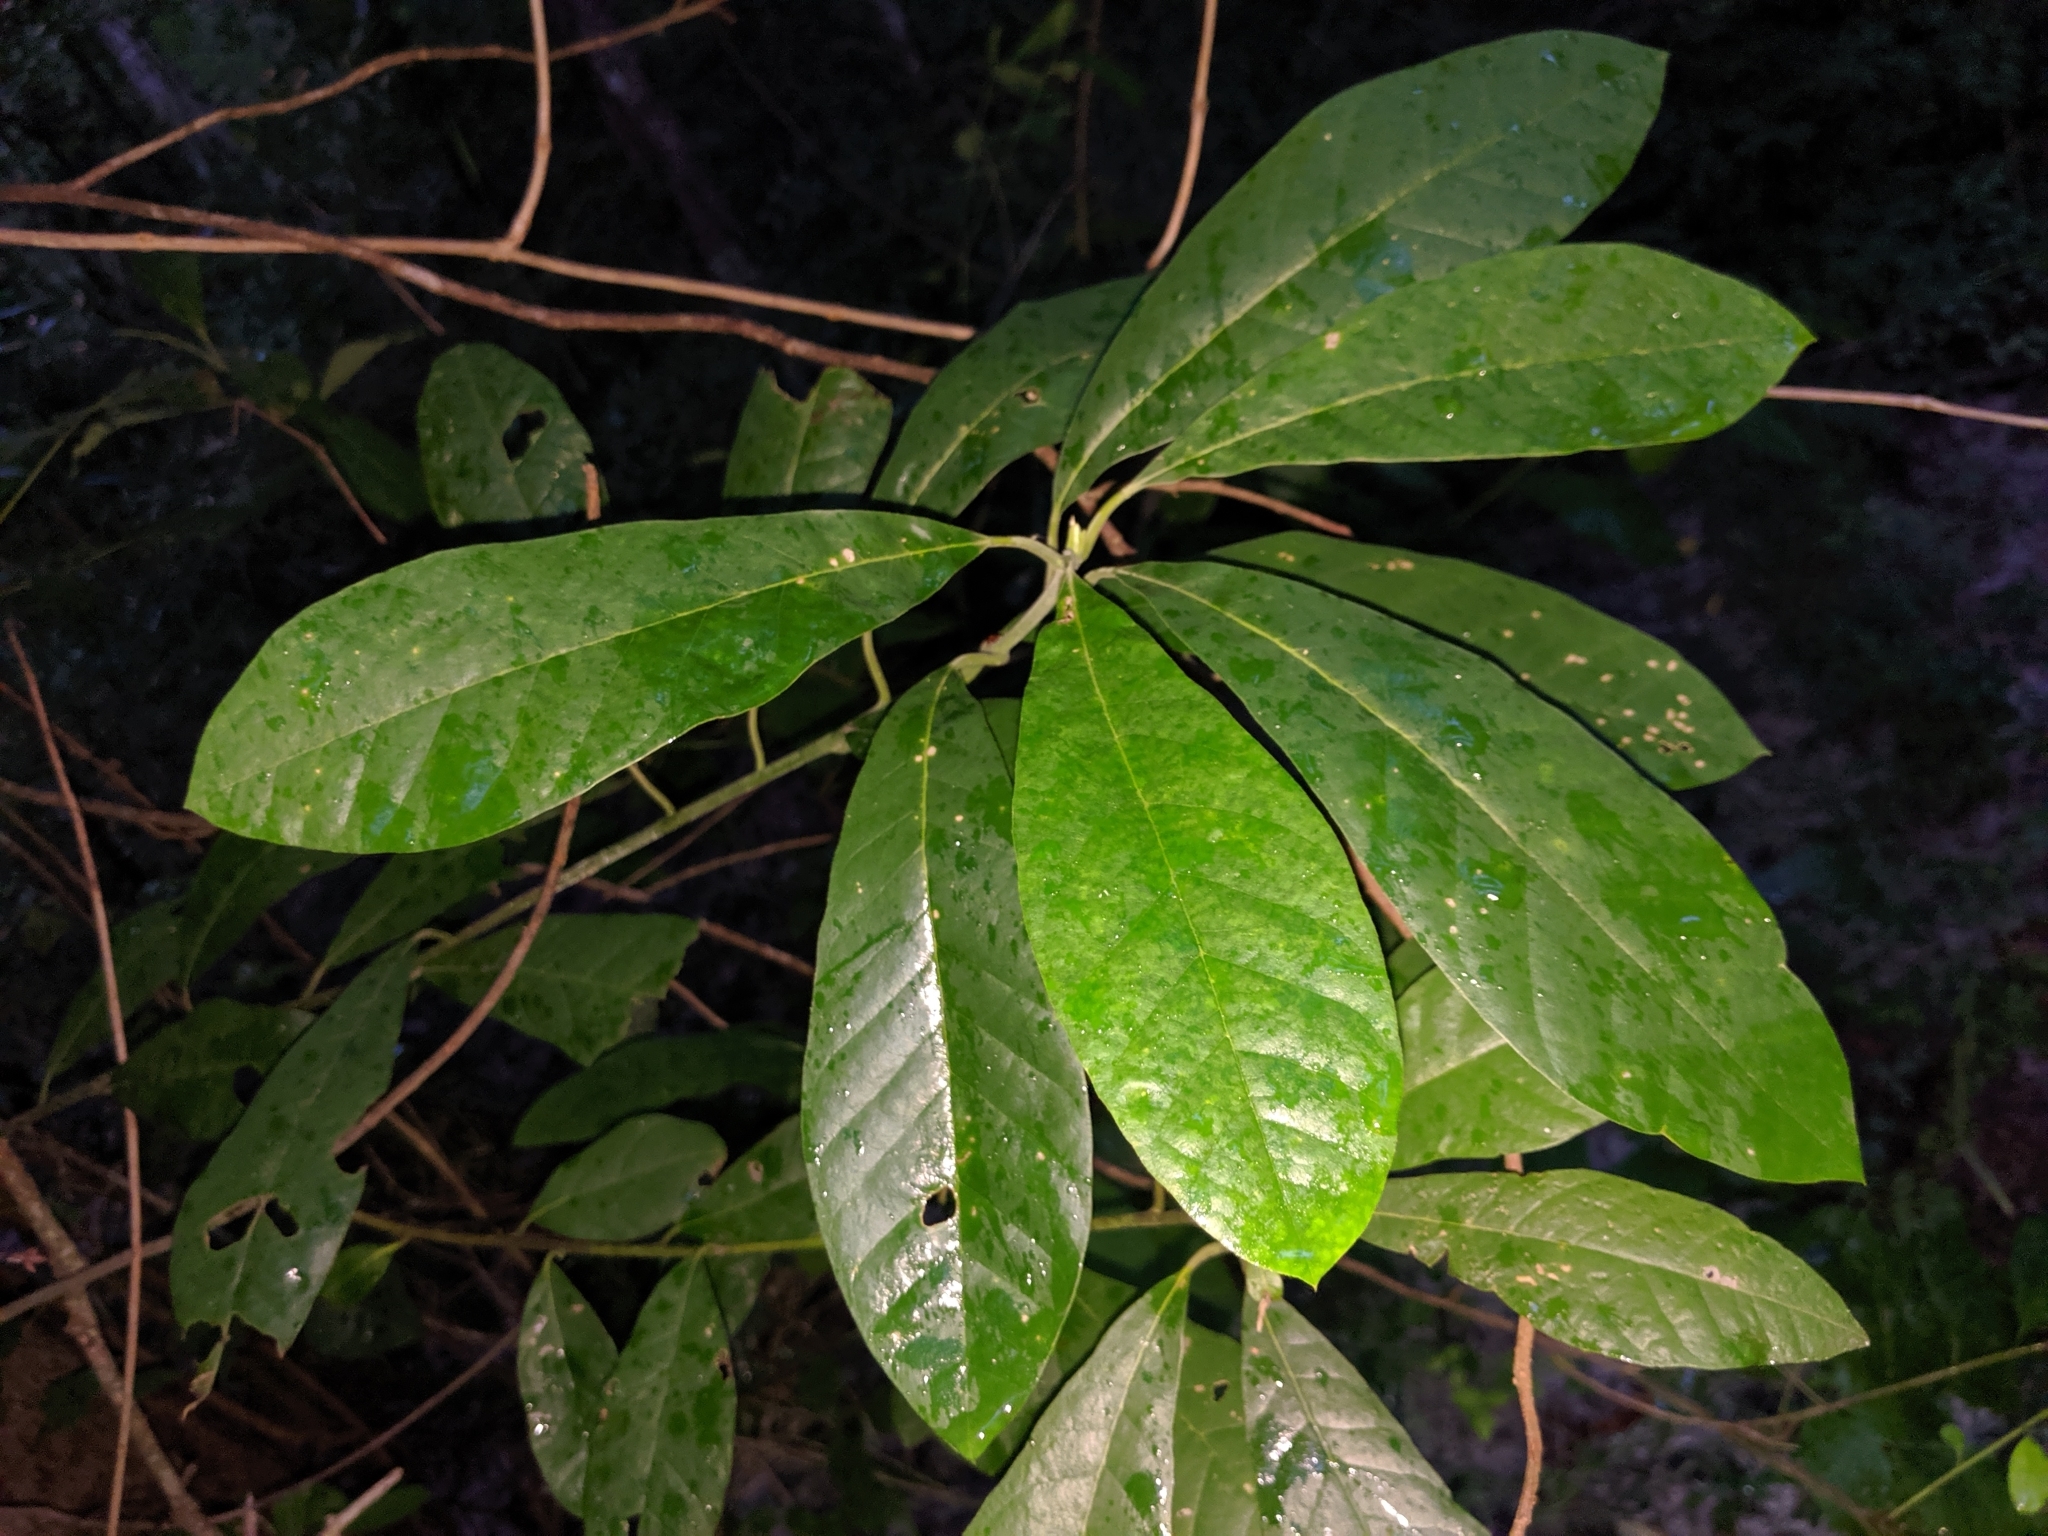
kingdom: Plantae
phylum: Tracheophyta
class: Magnoliopsida
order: Cornales
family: Nyssaceae
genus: Nyssa
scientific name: Nyssa ogeche
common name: Ogeechee tupelo
